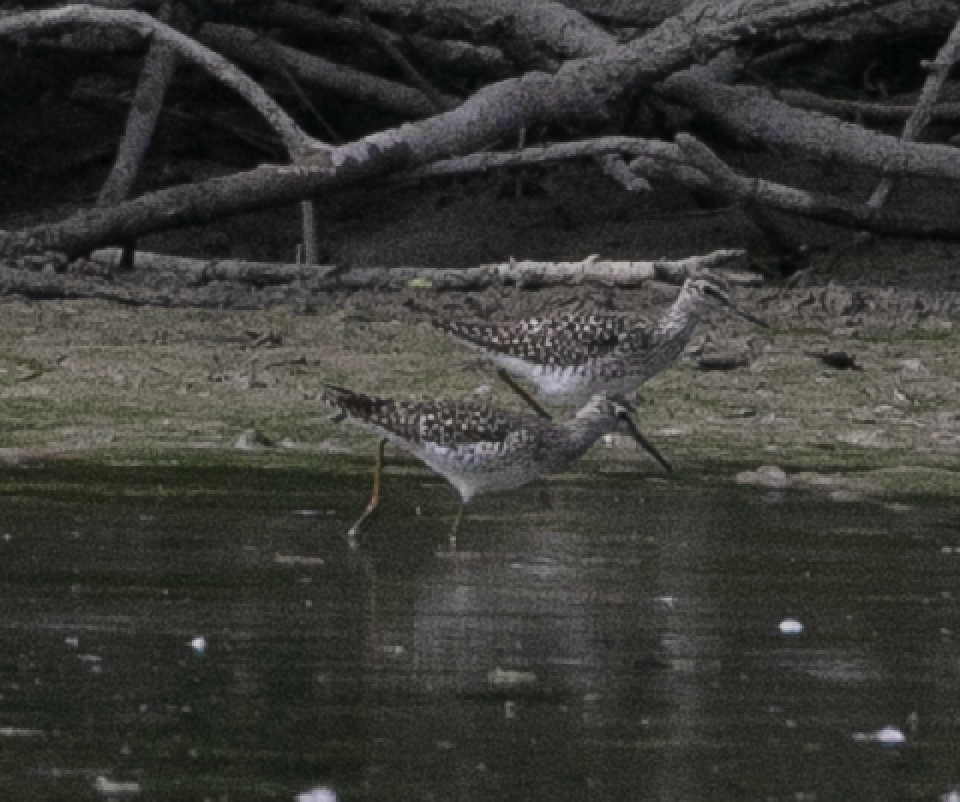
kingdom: Animalia
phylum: Chordata
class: Aves
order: Charadriiformes
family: Scolopacidae
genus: Tringa
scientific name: Tringa glareola
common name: Wood sandpiper
